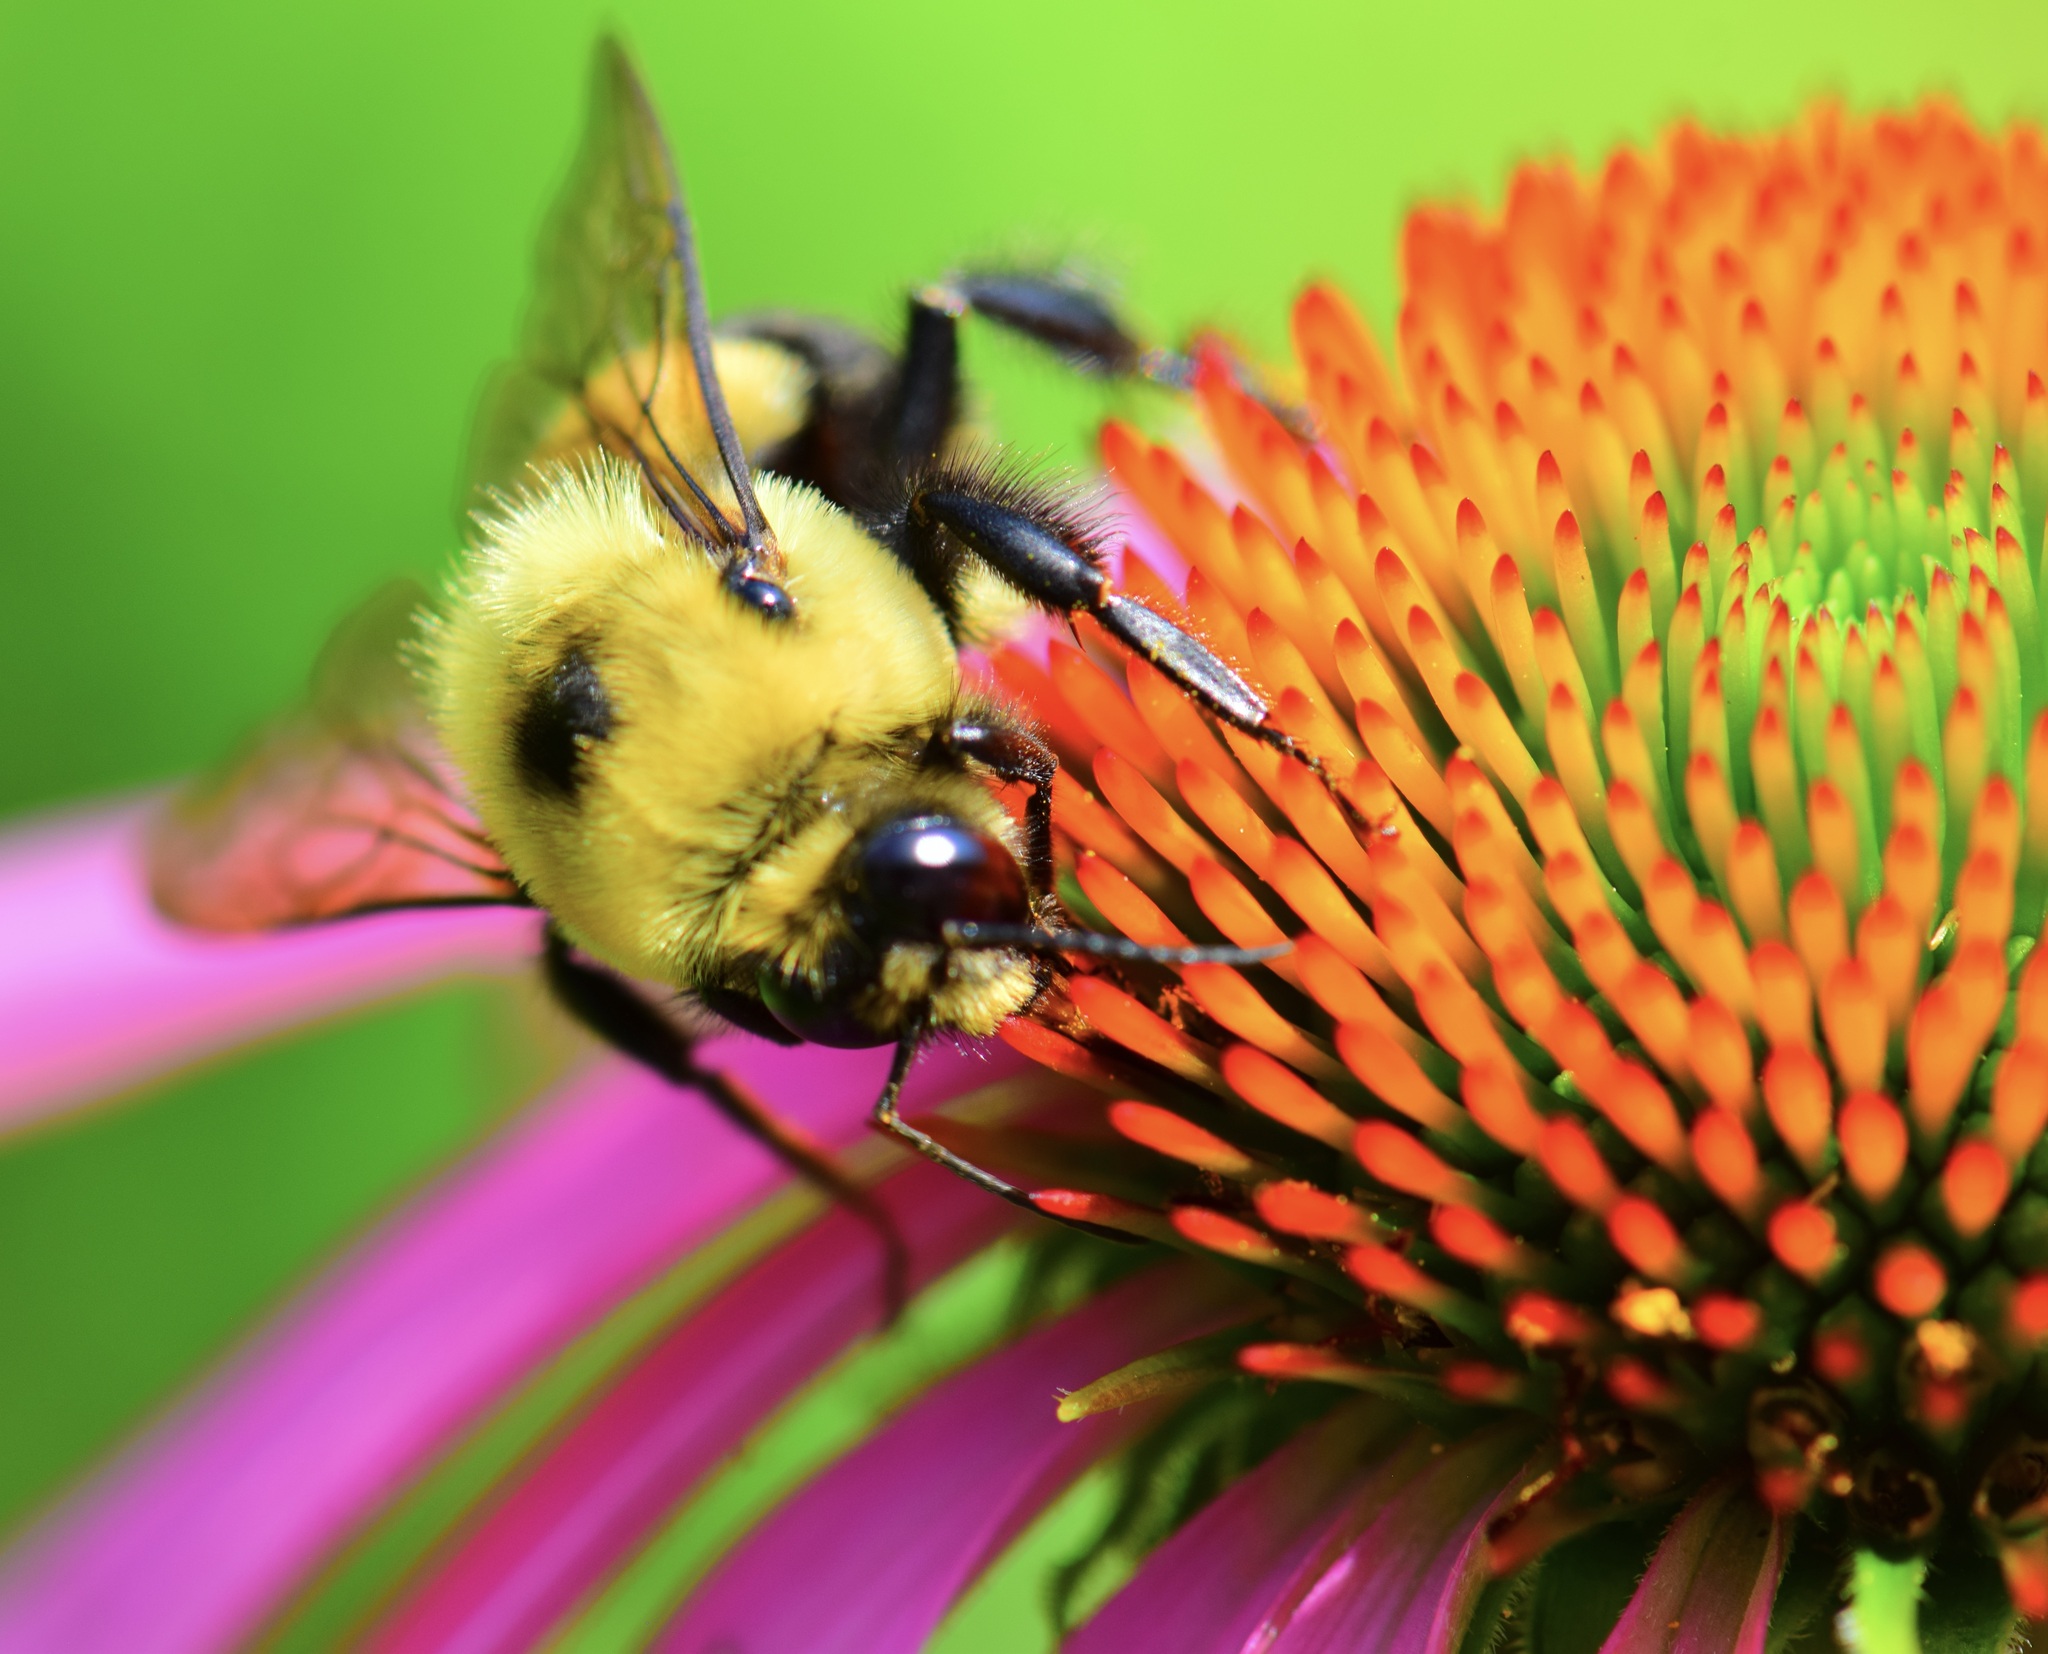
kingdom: Animalia
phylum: Arthropoda
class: Insecta
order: Hymenoptera
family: Apidae
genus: Bombus
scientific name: Bombus griseocollis
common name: Brown-belted bumble bee
